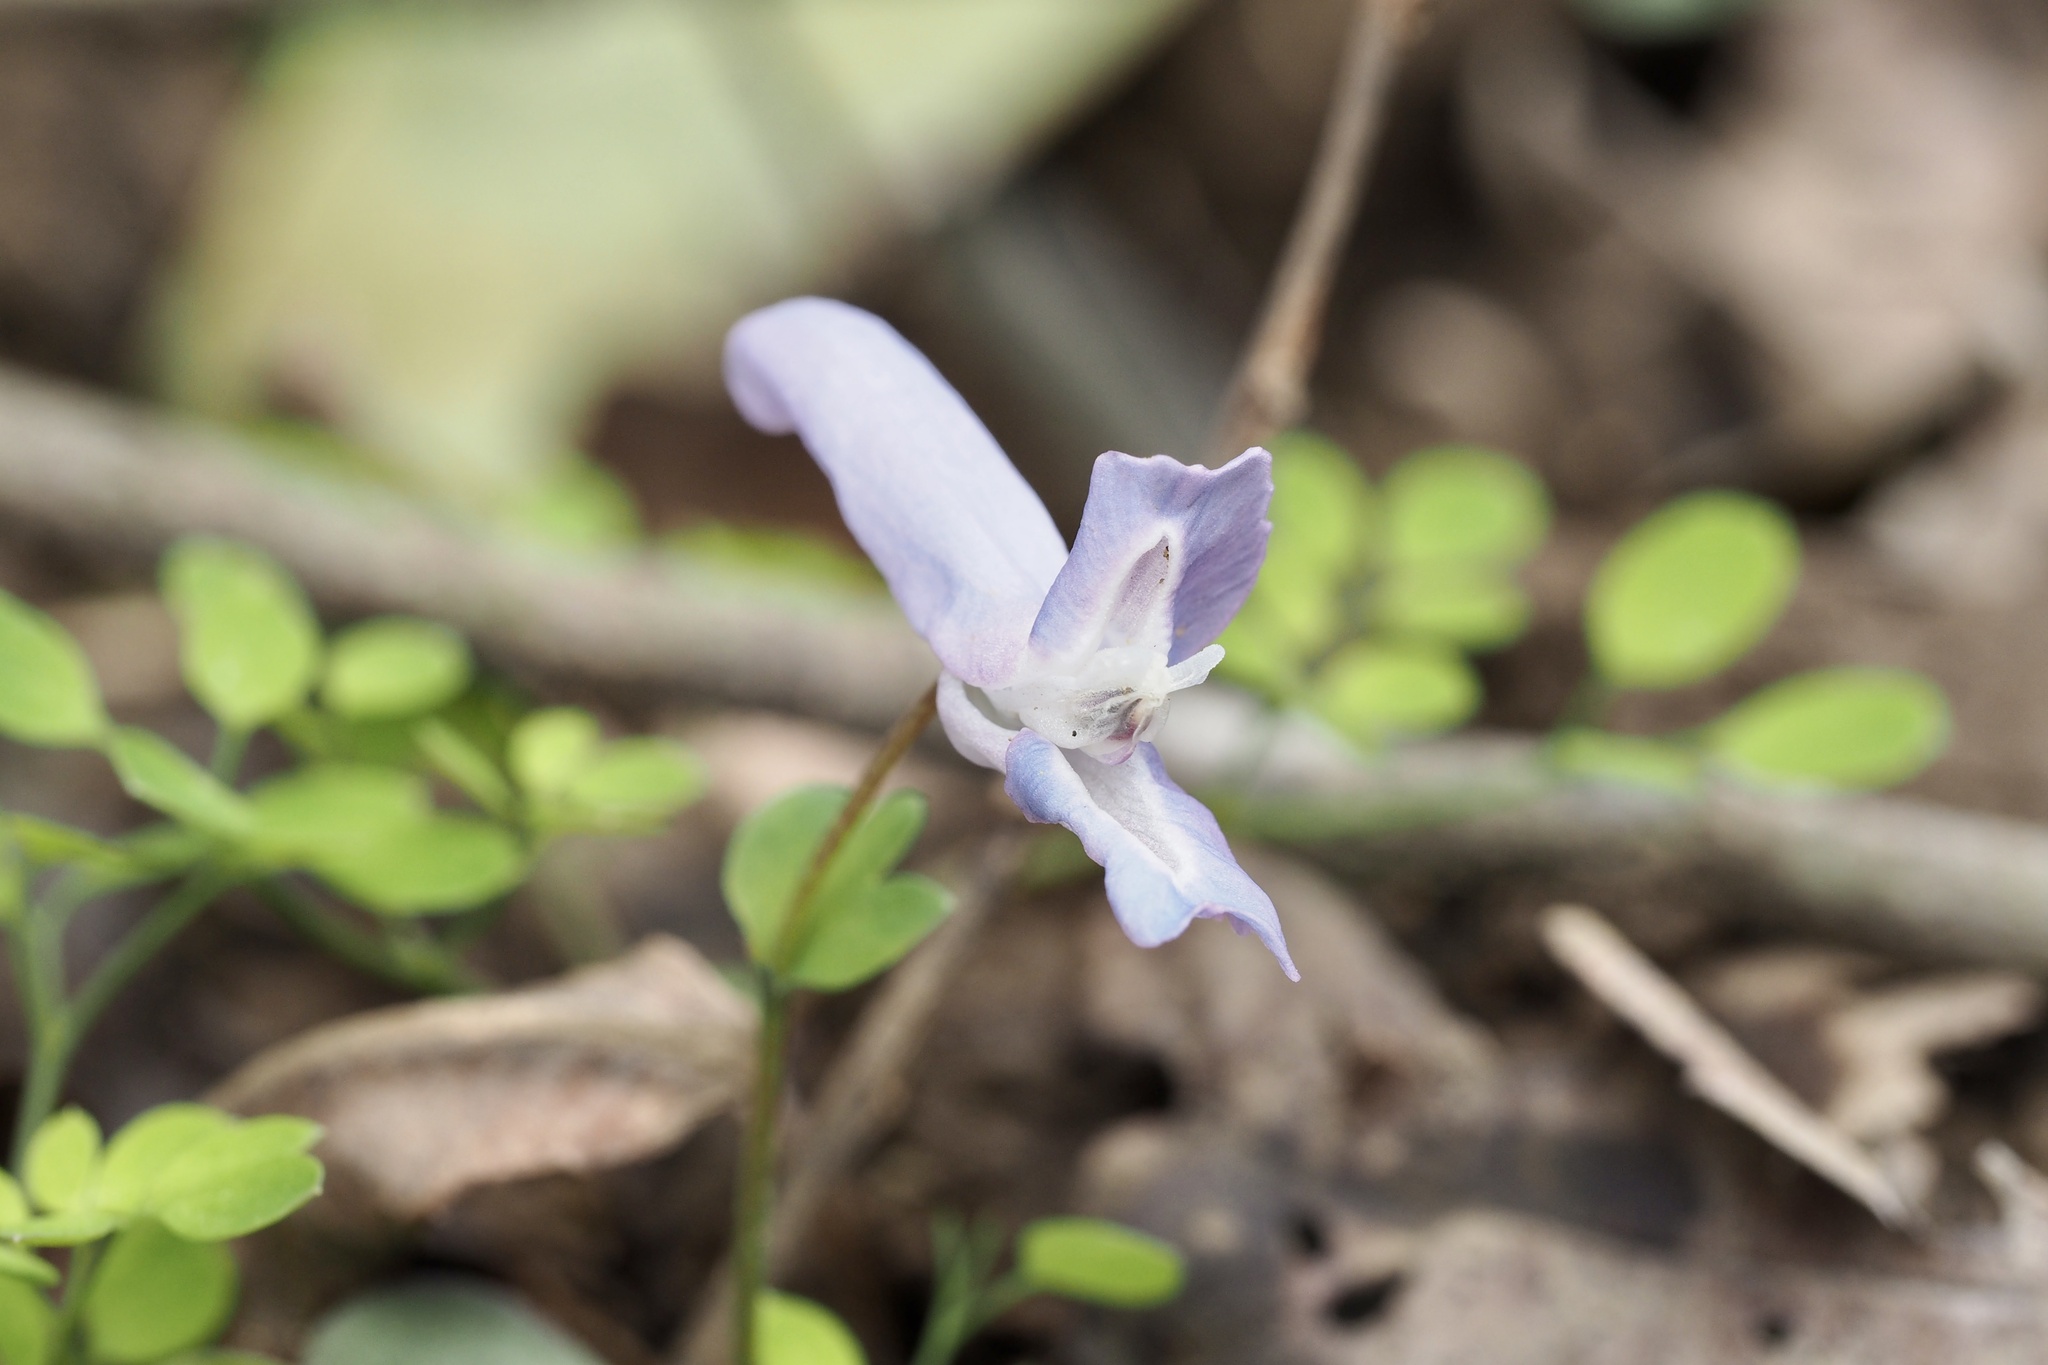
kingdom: Plantae
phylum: Tracheophyta
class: Magnoliopsida
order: Ranunculales
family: Papaveraceae
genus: Corydalis
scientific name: Corydalis lineariloba
